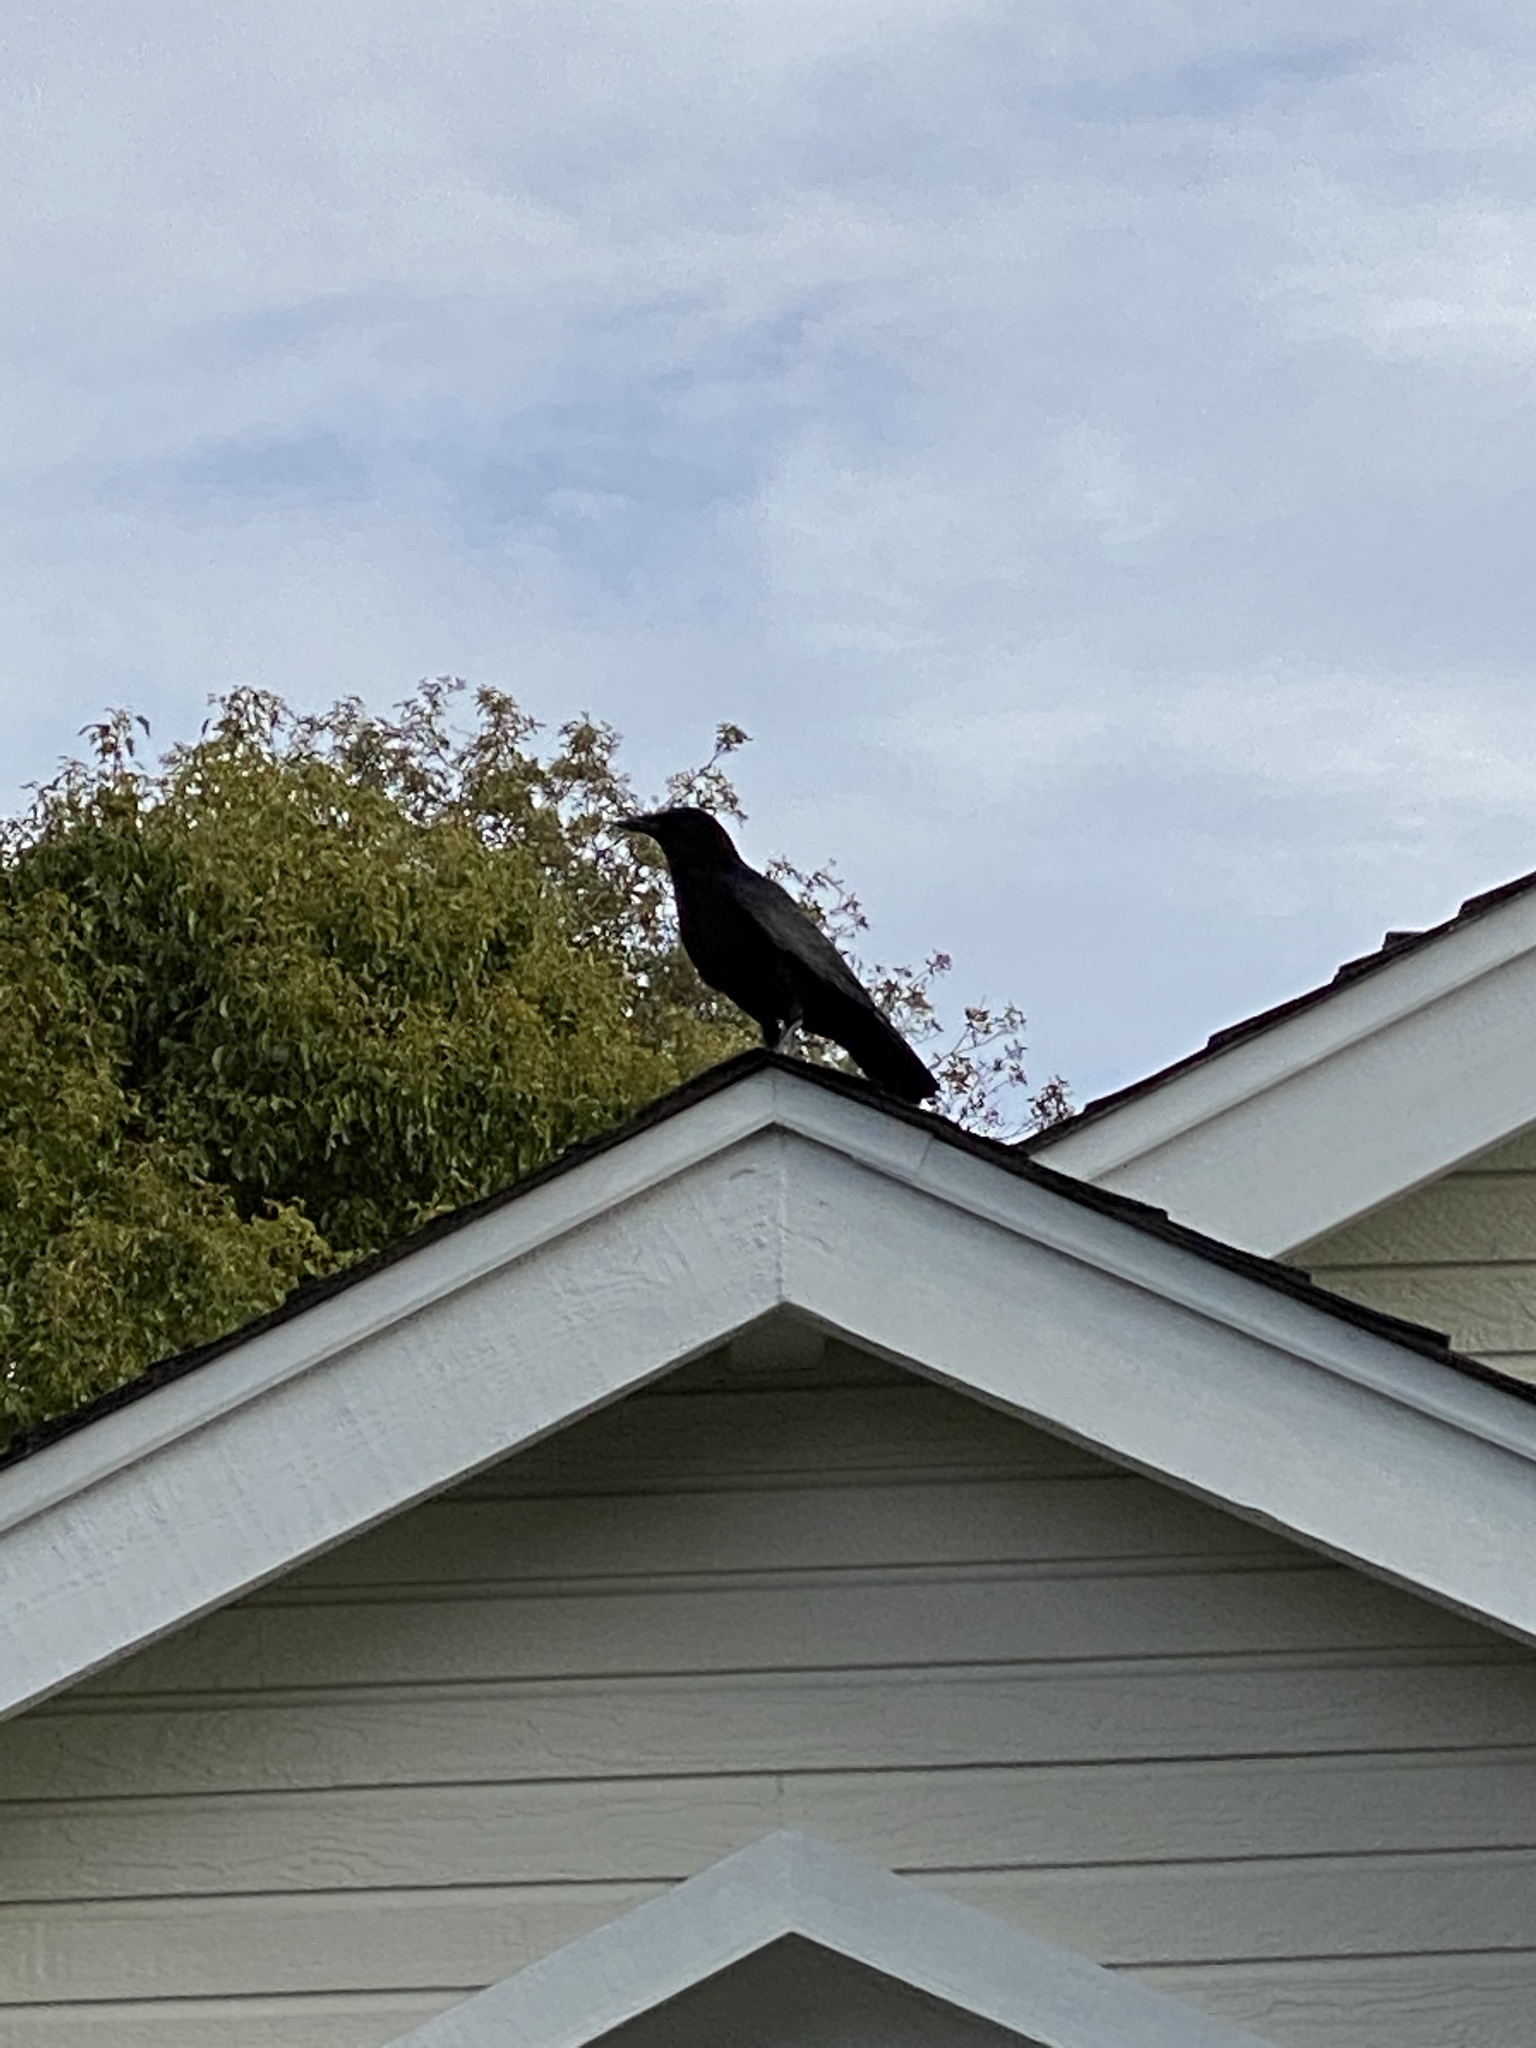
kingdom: Animalia
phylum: Chordata
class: Aves
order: Passeriformes
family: Corvidae
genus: Corvus
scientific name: Corvus brachyrhynchos
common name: American crow
